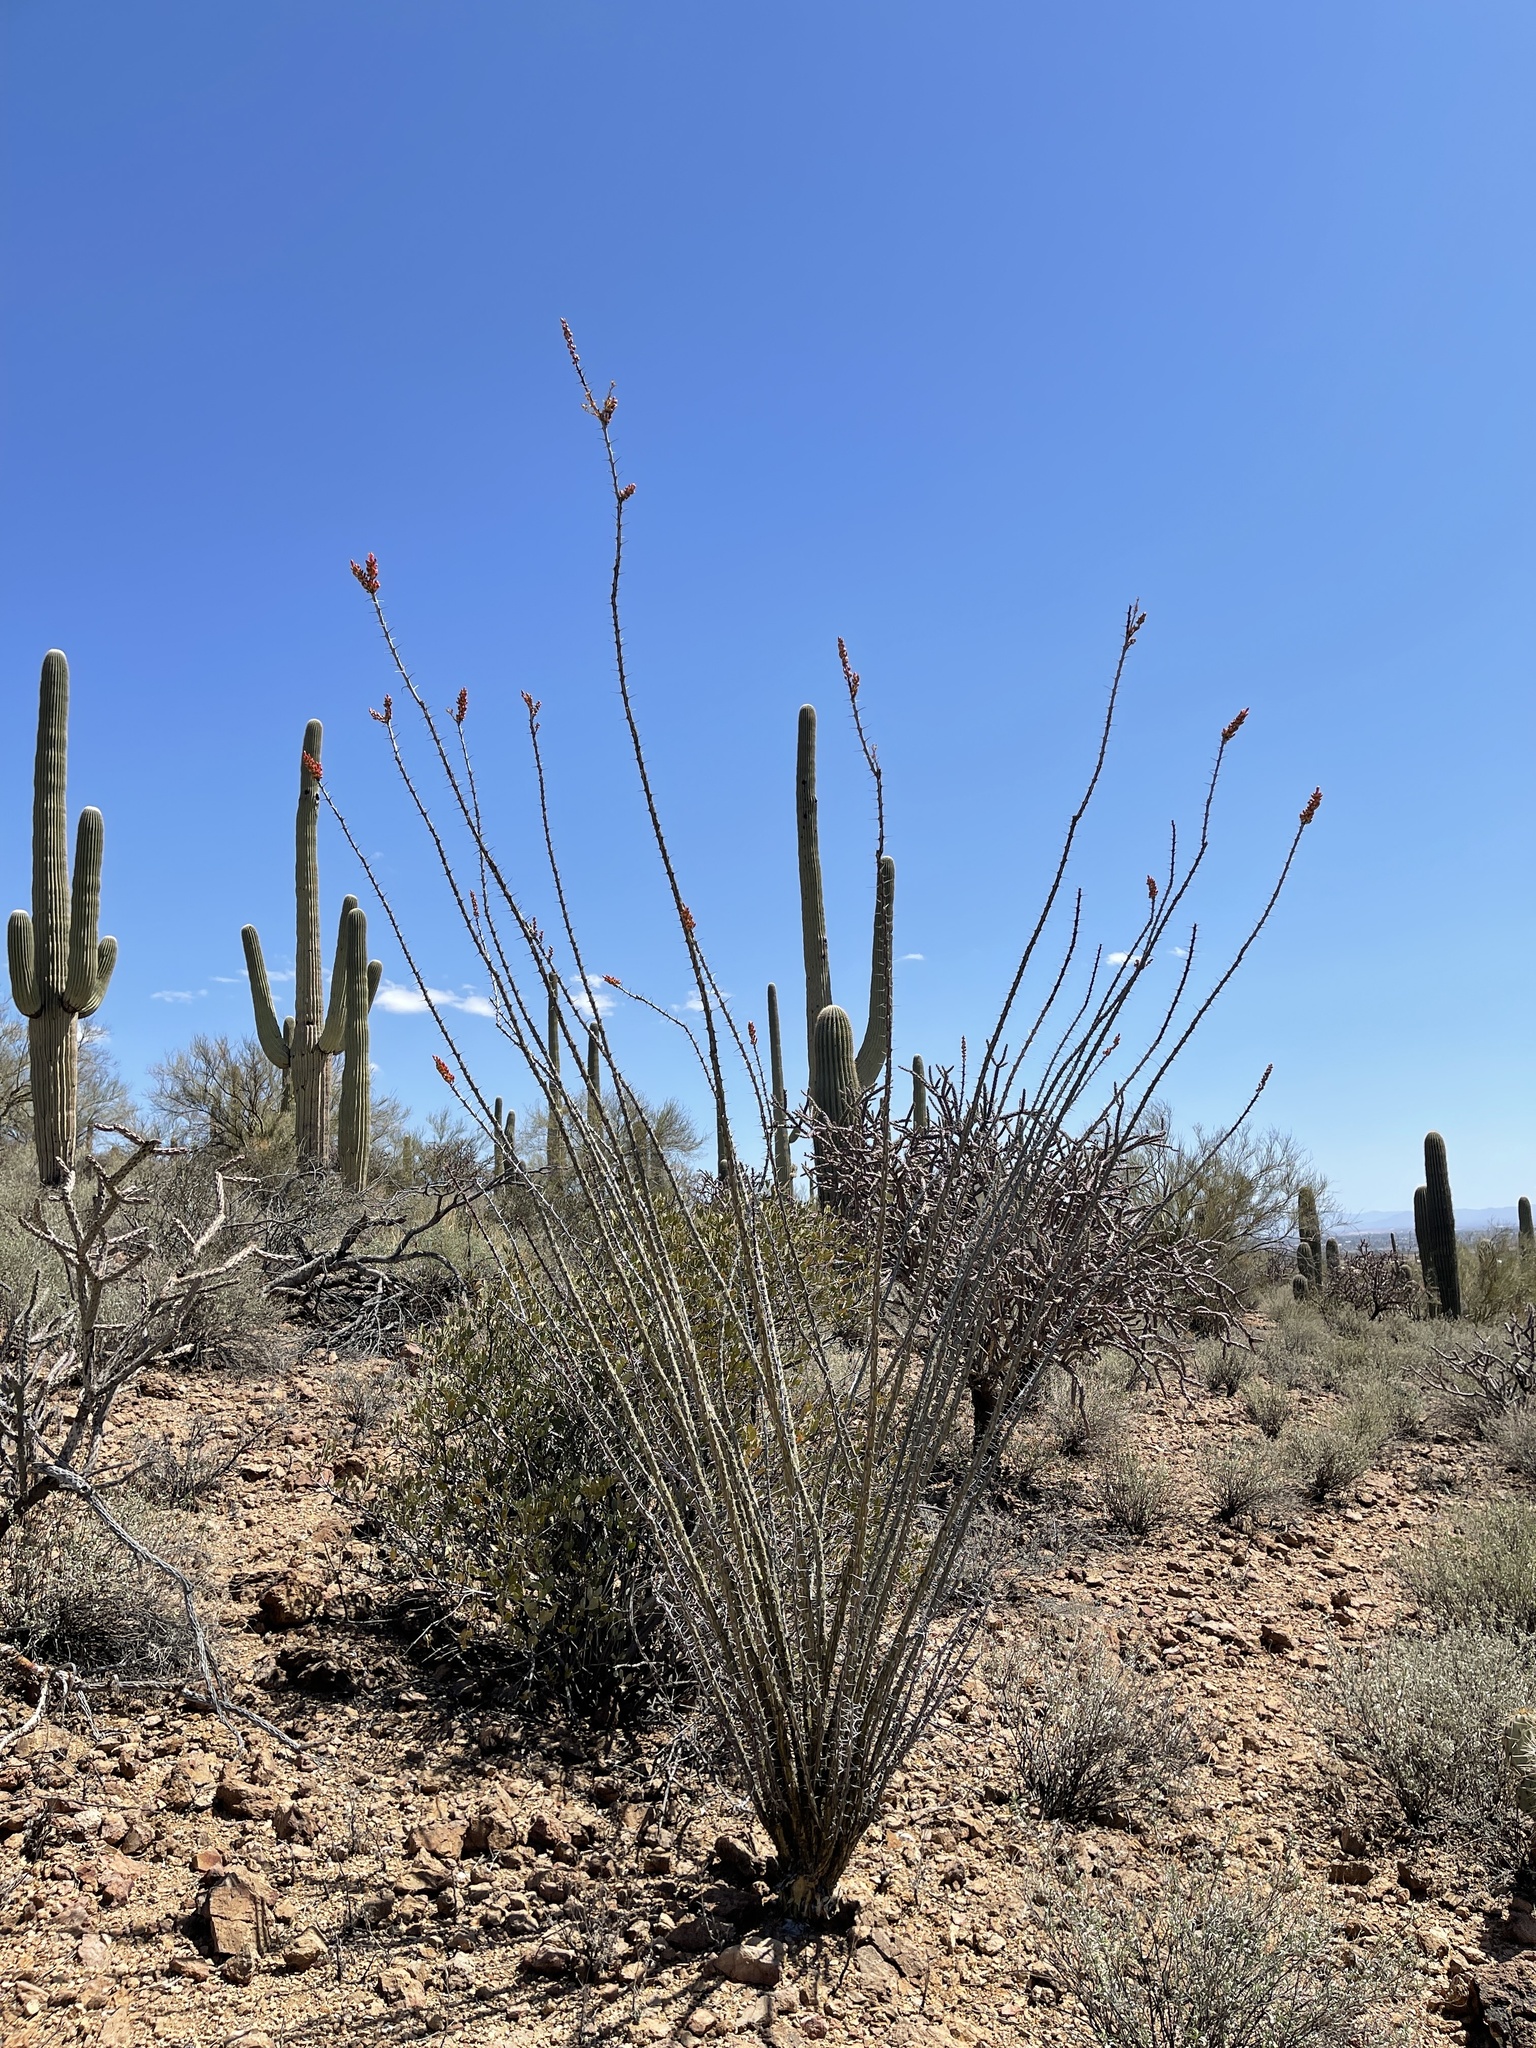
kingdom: Plantae
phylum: Tracheophyta
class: Magnoliopsida
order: Ericales
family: Fouquieriaceae
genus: Fouquieria
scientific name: Fouquieria splendens
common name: Vine-cactus
